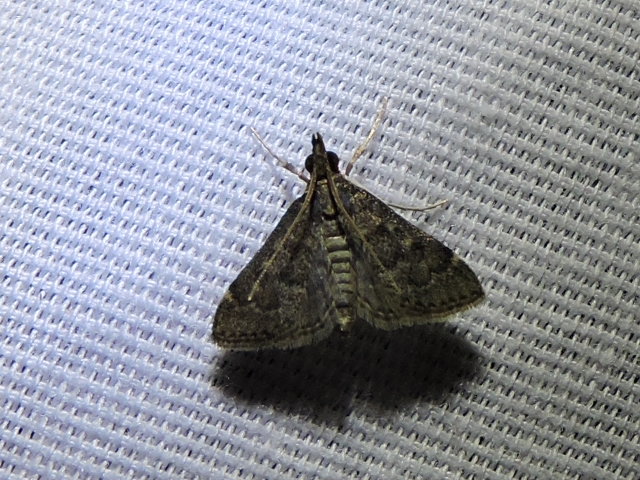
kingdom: Animalia
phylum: Arthropoda
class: Insecta
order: Lepidoptera
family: Crambidae
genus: Steniodes
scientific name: Steniodes mendica
